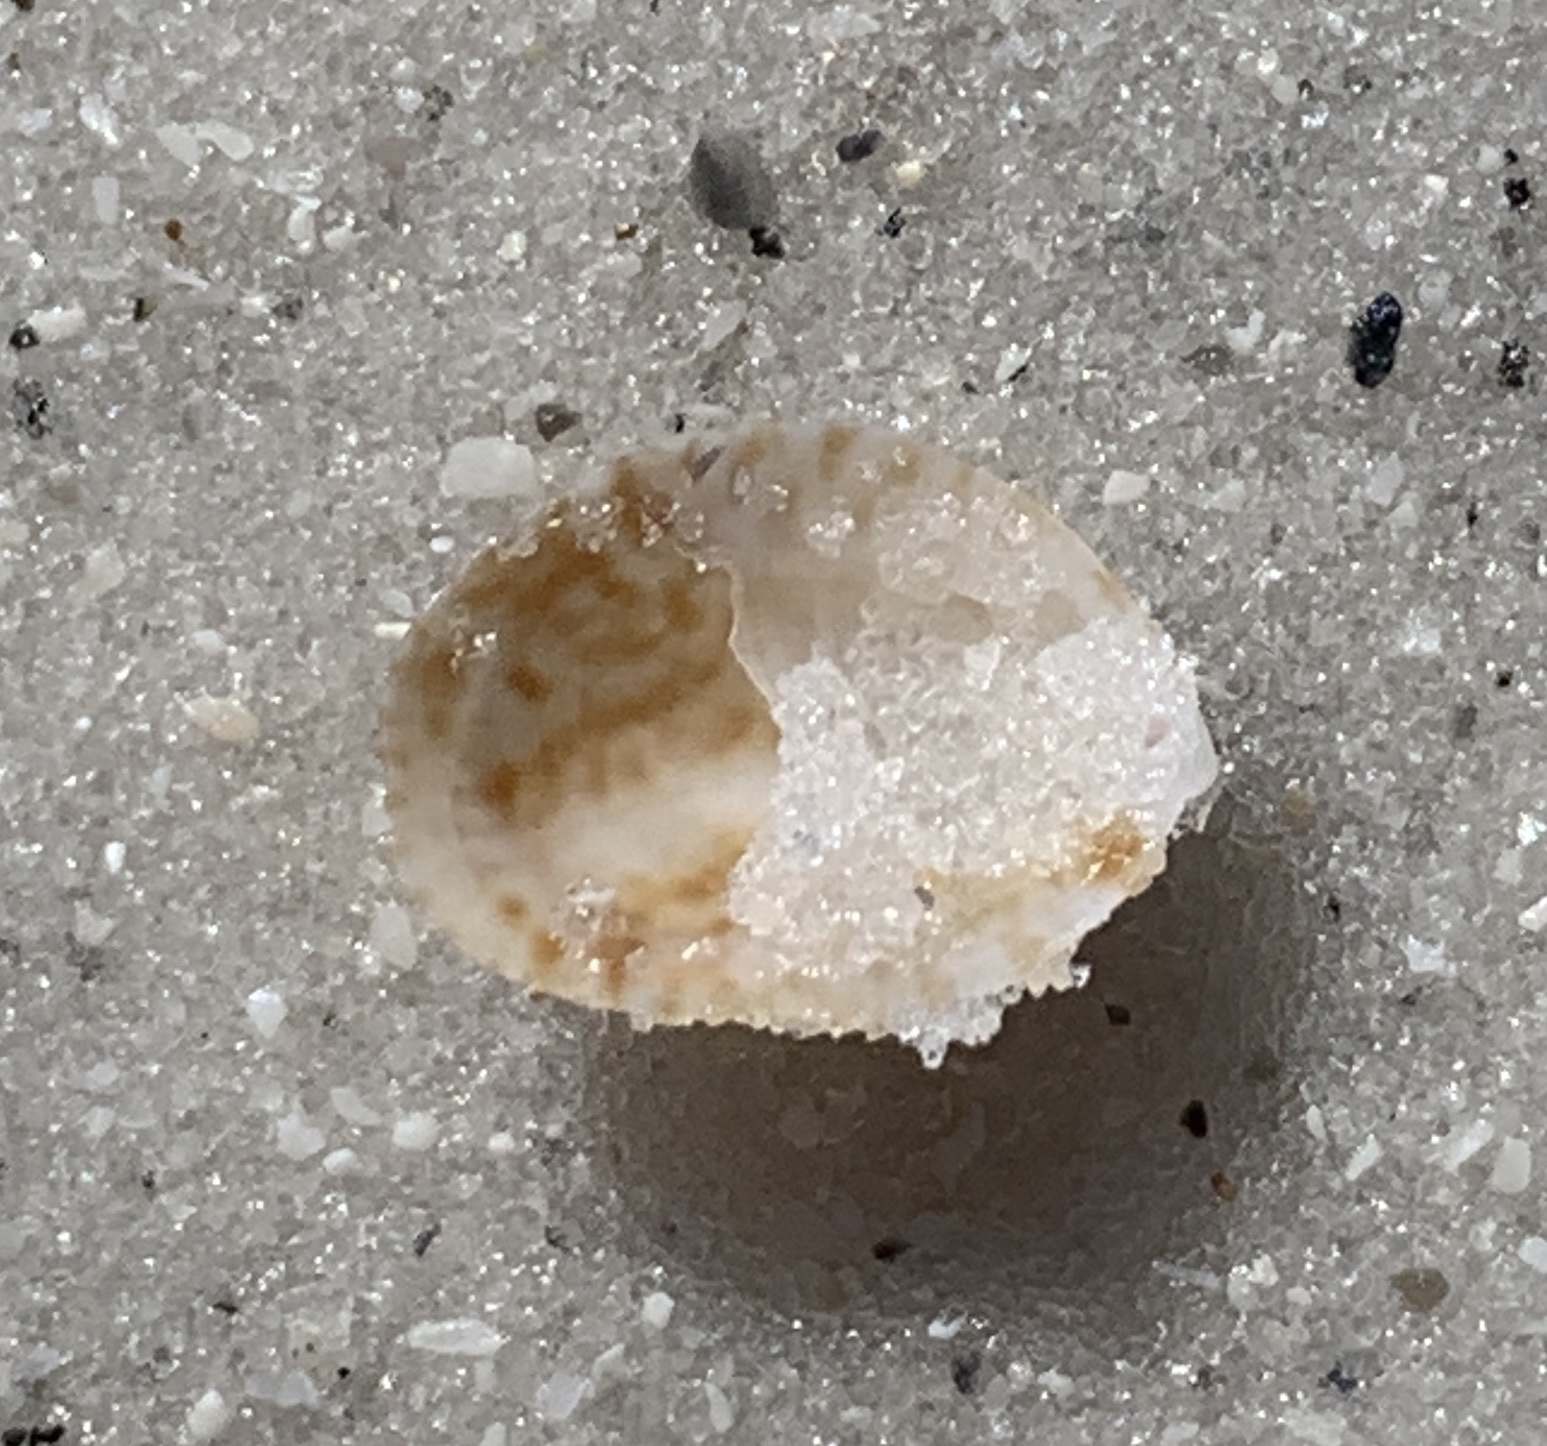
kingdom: Animalia
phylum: Mollusca
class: Gastropoda
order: Littorinimorpha
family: Calyptraeidae
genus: Crepidula
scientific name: Crepidula fornicata
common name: Slipper limpet
